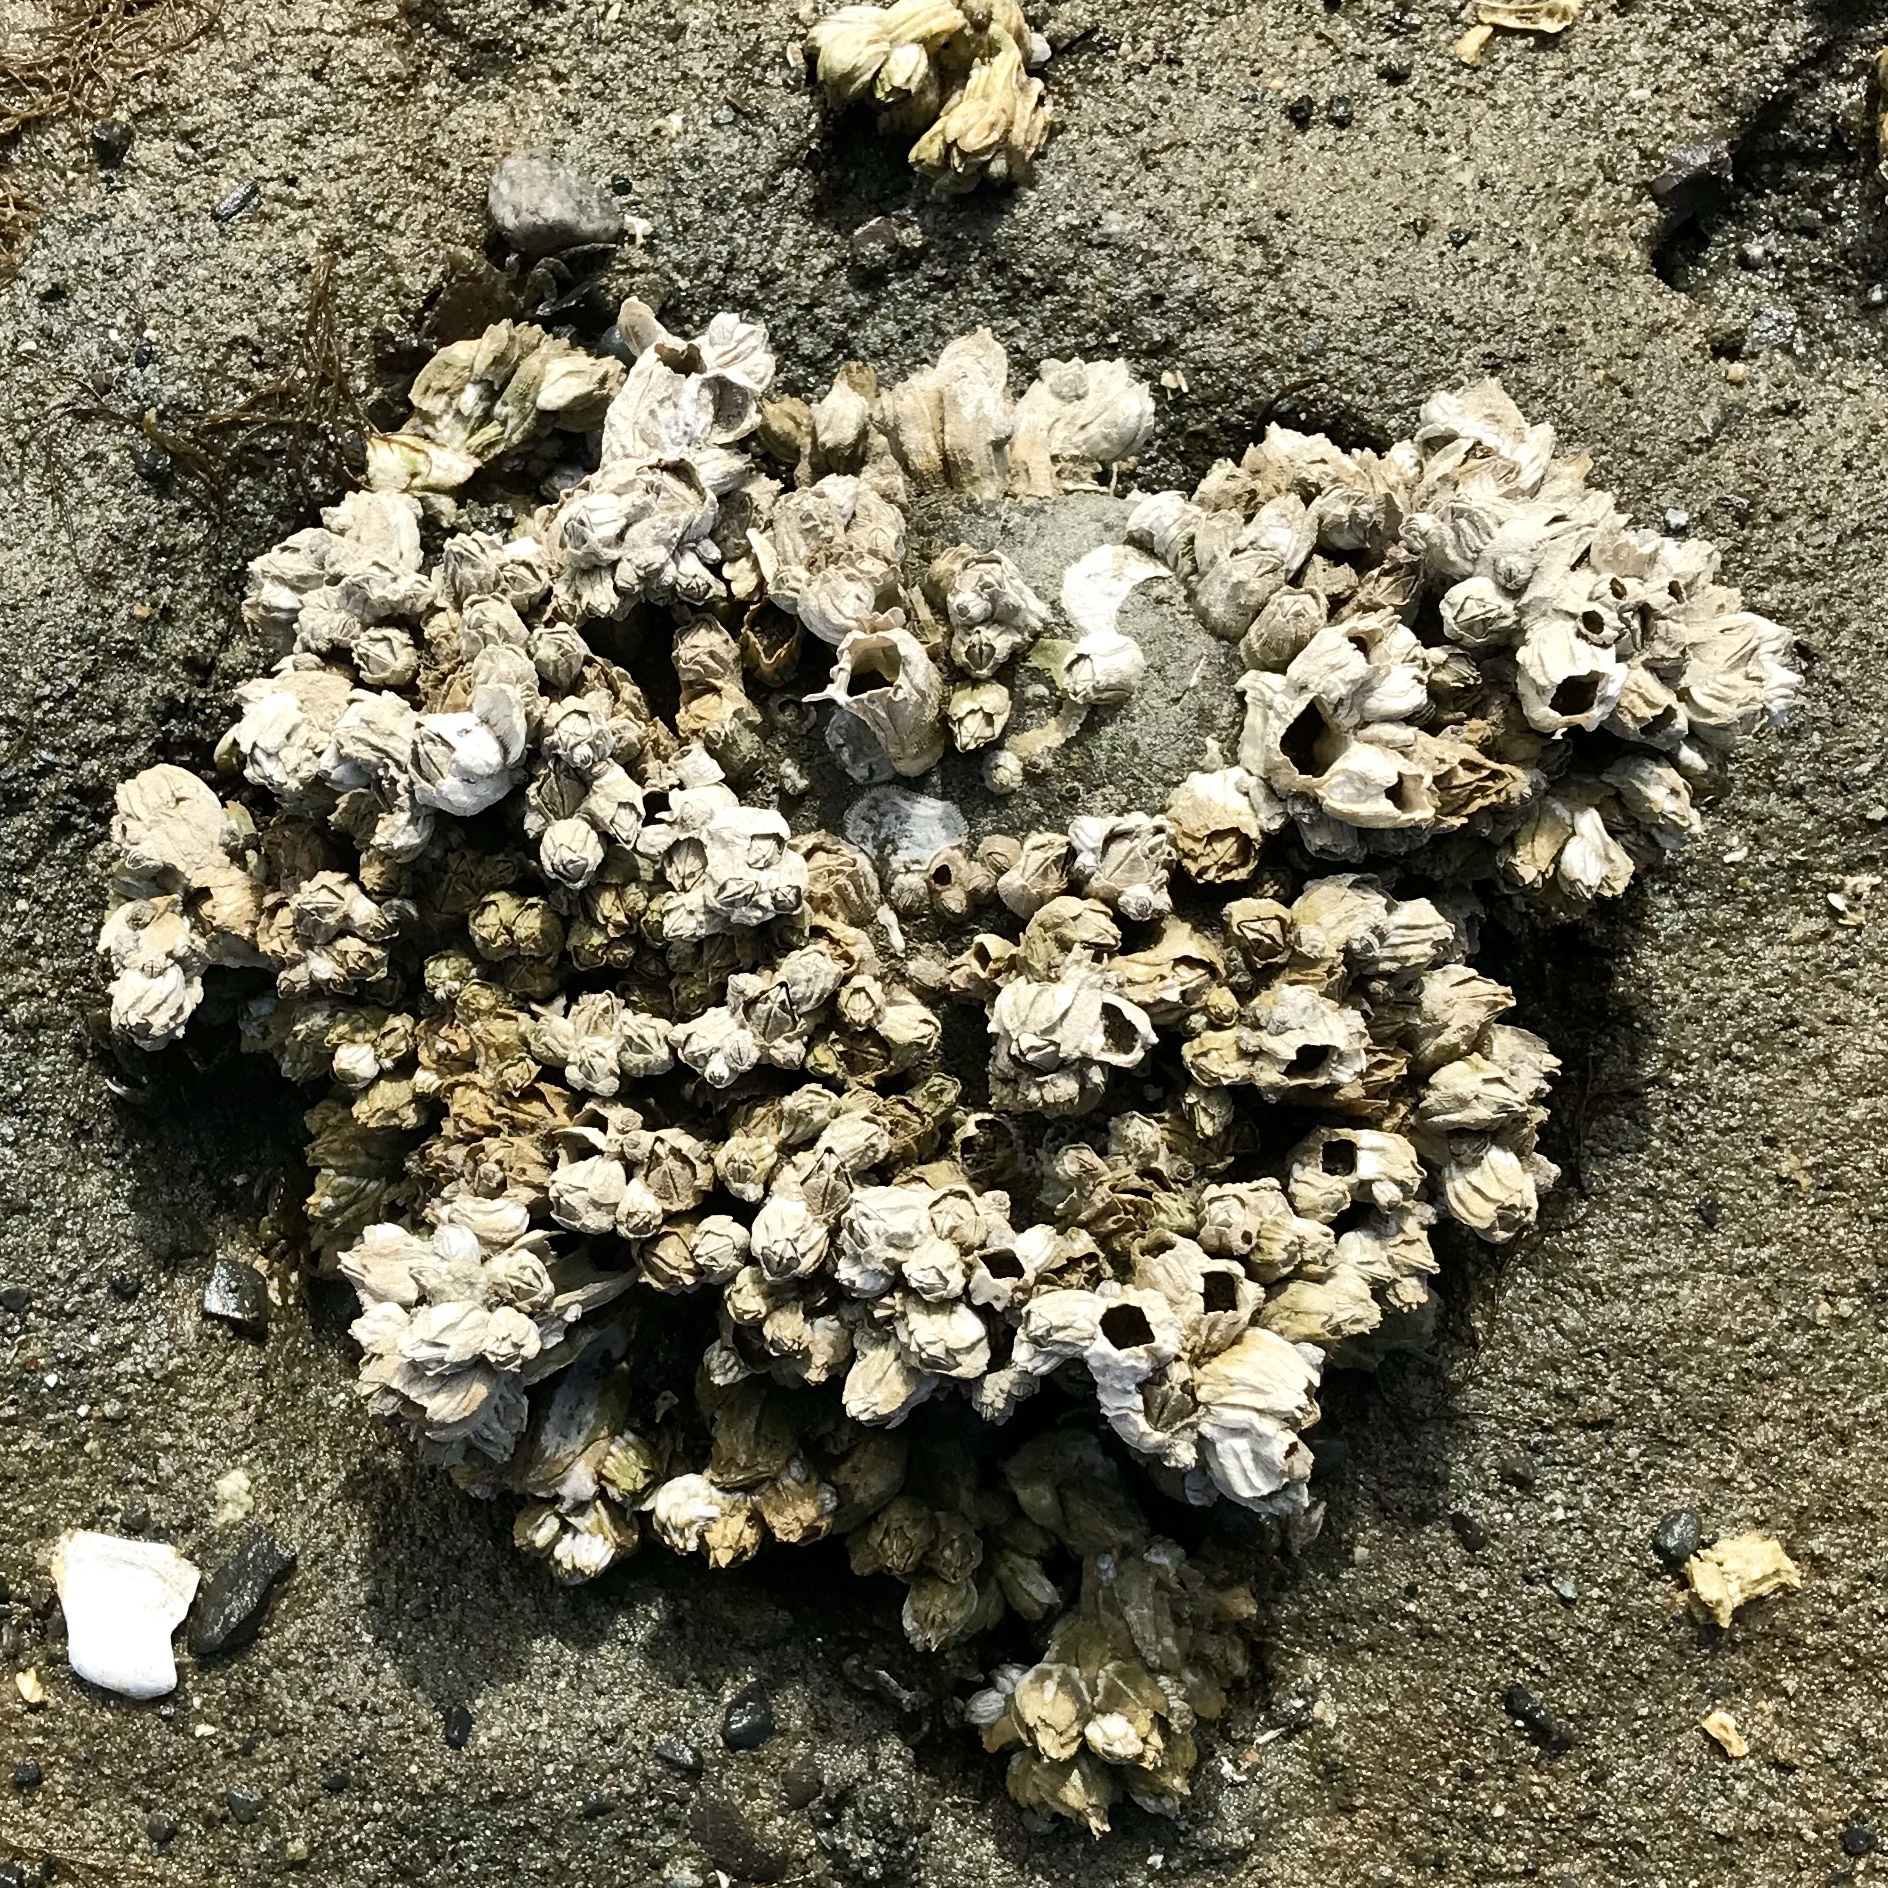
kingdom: Animalia
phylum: Arthropoda
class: Maxillopoda
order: Sessilia
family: Balanidae
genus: Balanus
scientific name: Balanus glandula
